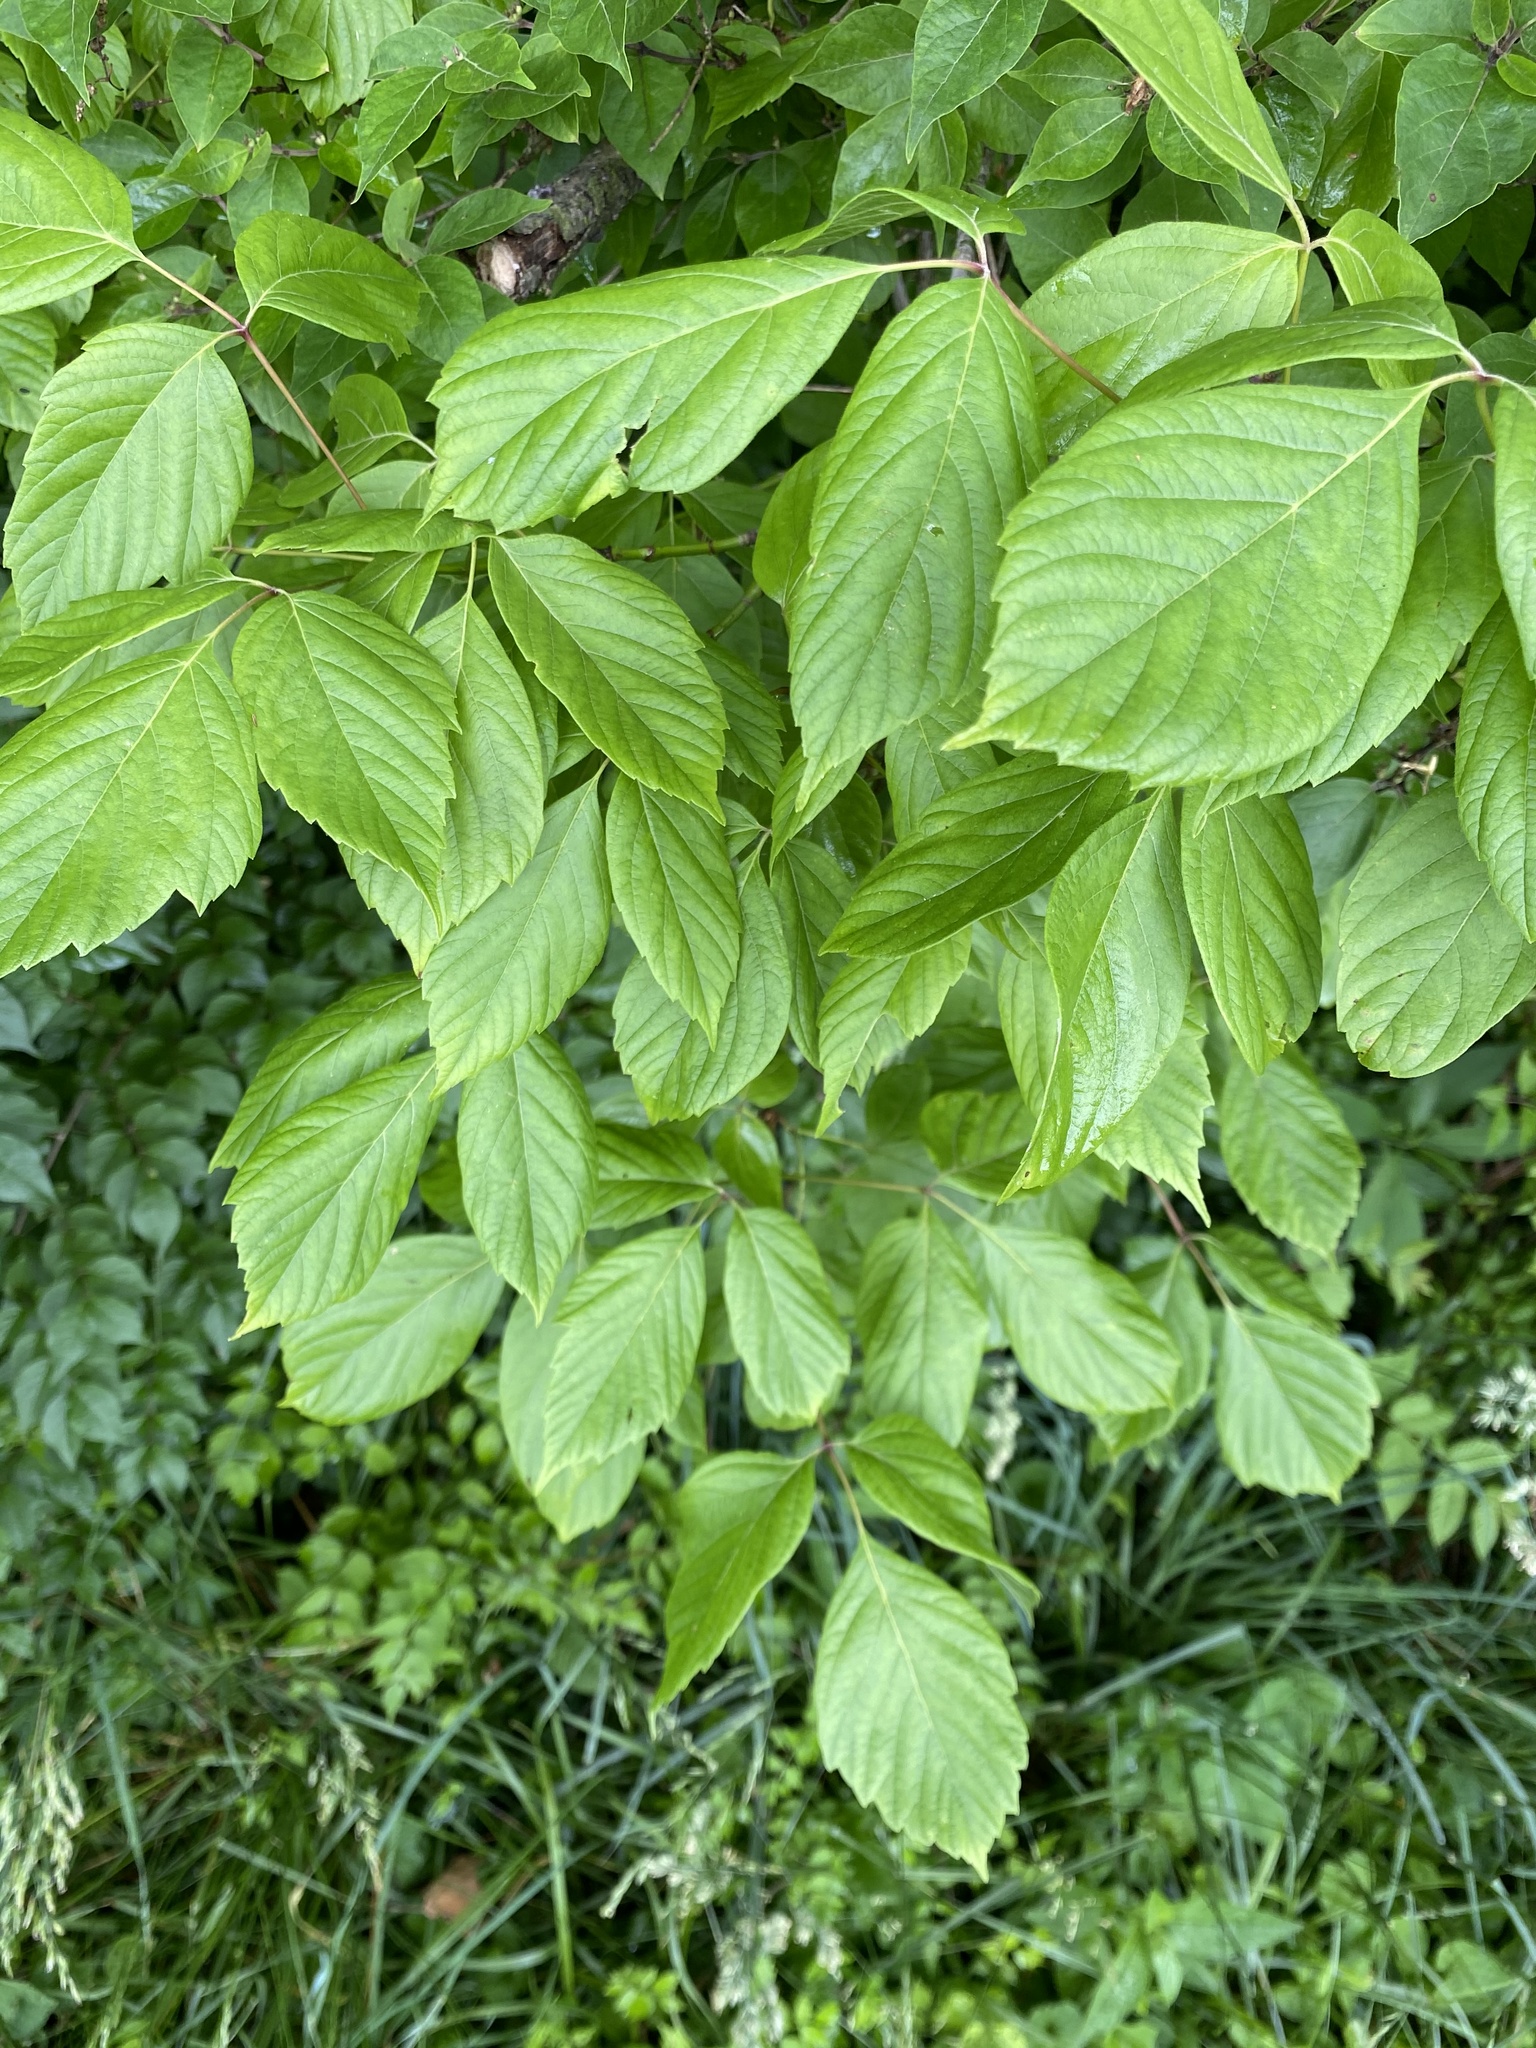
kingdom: Plantae
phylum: Tracheophyta
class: Magnoliopsida
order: Sapindales
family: Sapindaceae
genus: Acer
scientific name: Acer negundo
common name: Ashleaf maple
